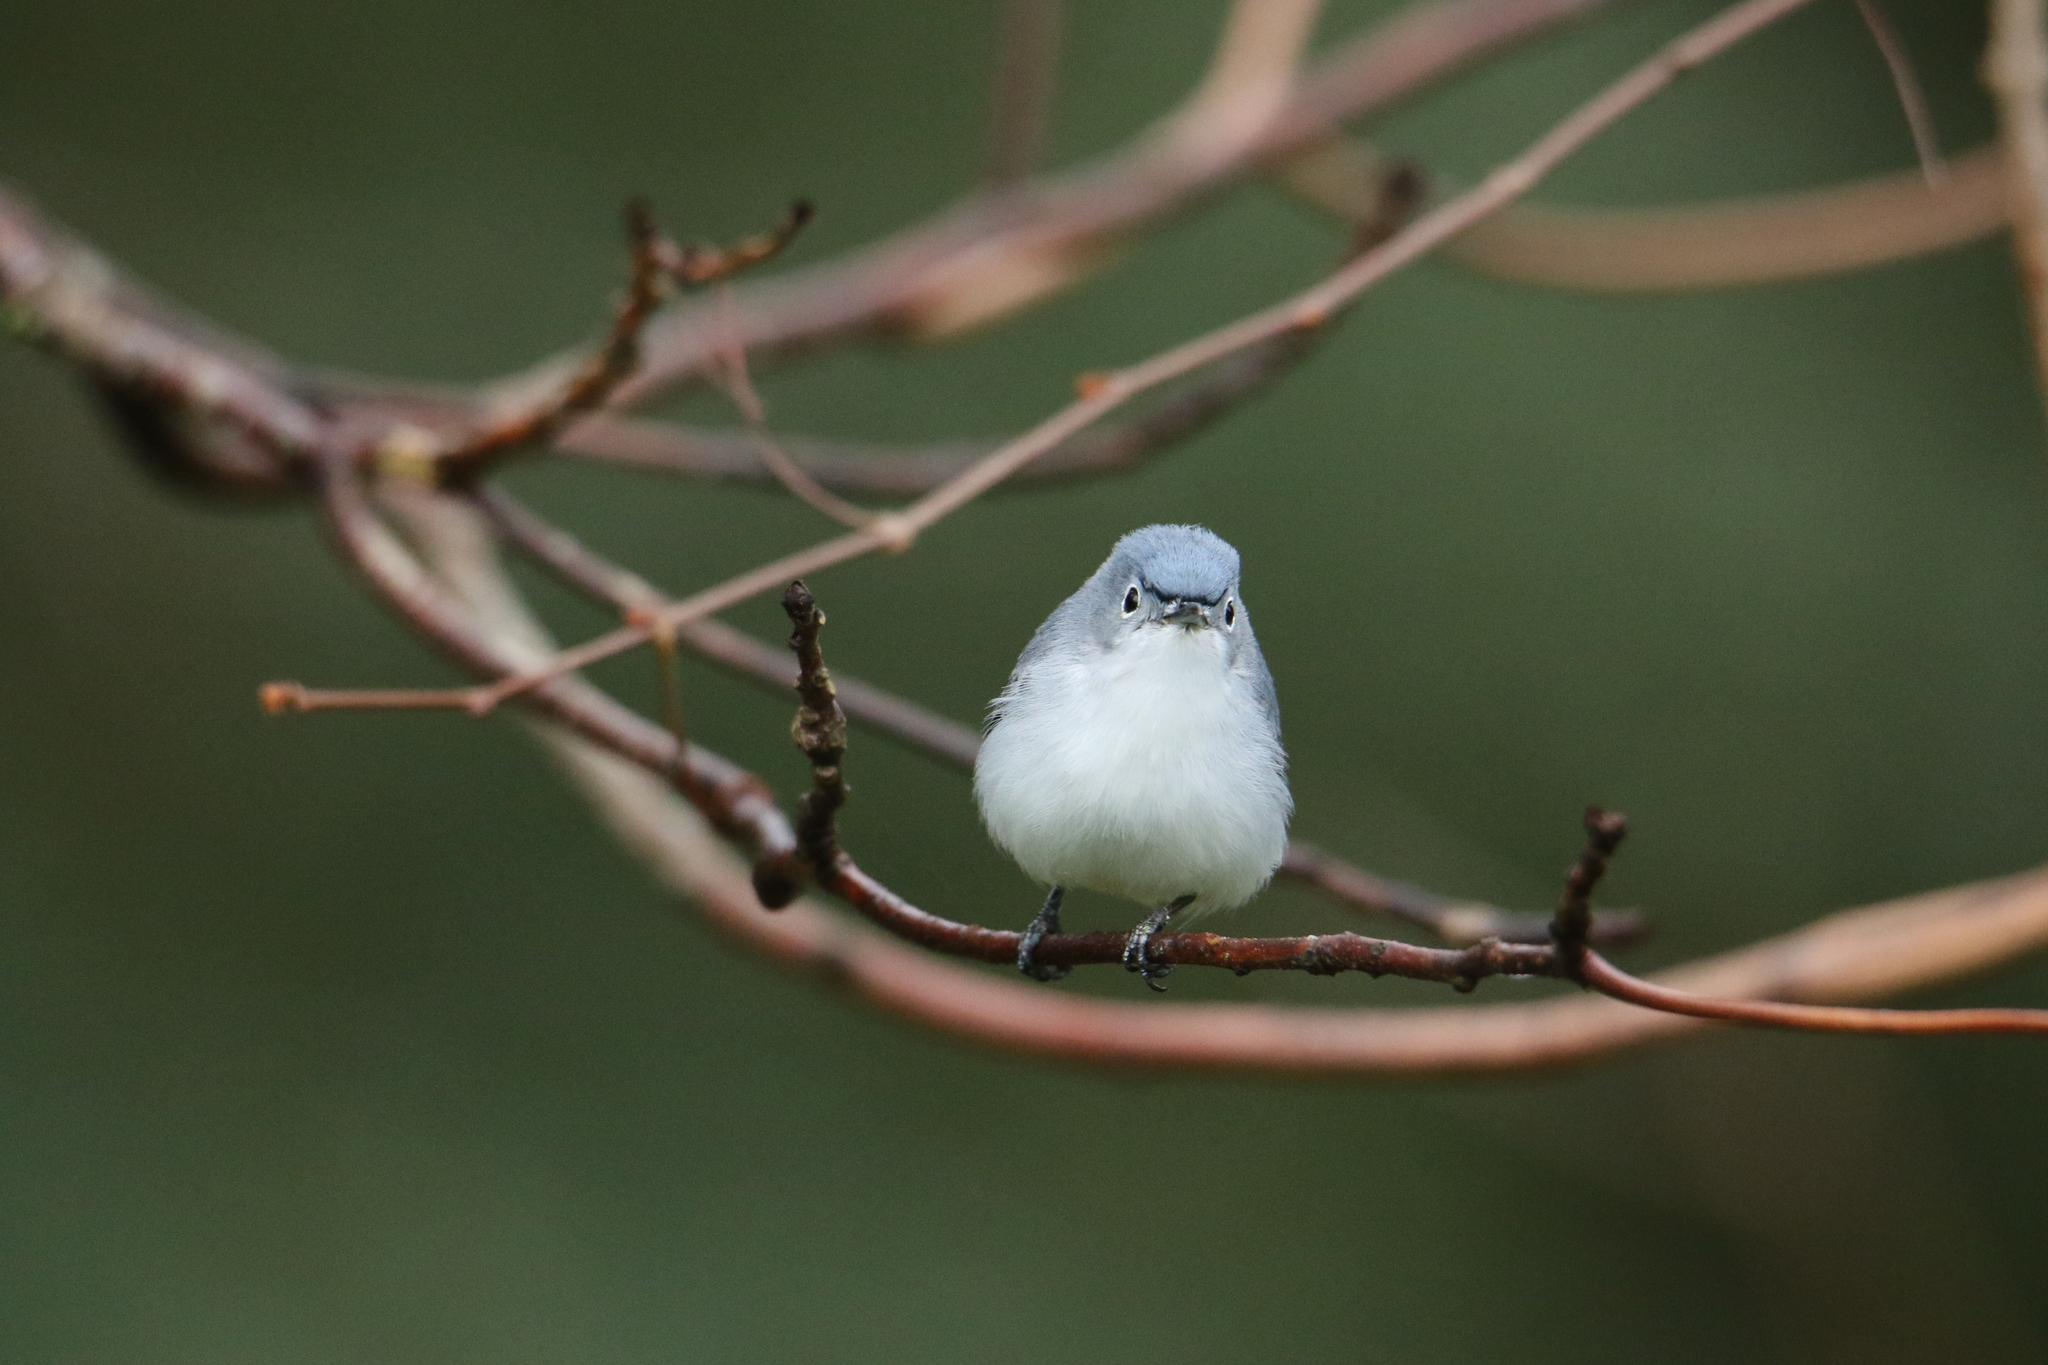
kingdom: Animalia
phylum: Chordata
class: Aves
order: Passeriformes
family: Polioptilidae
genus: Polioptila
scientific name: Polioptila caerulea
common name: Blue-gray gnatcatcher
